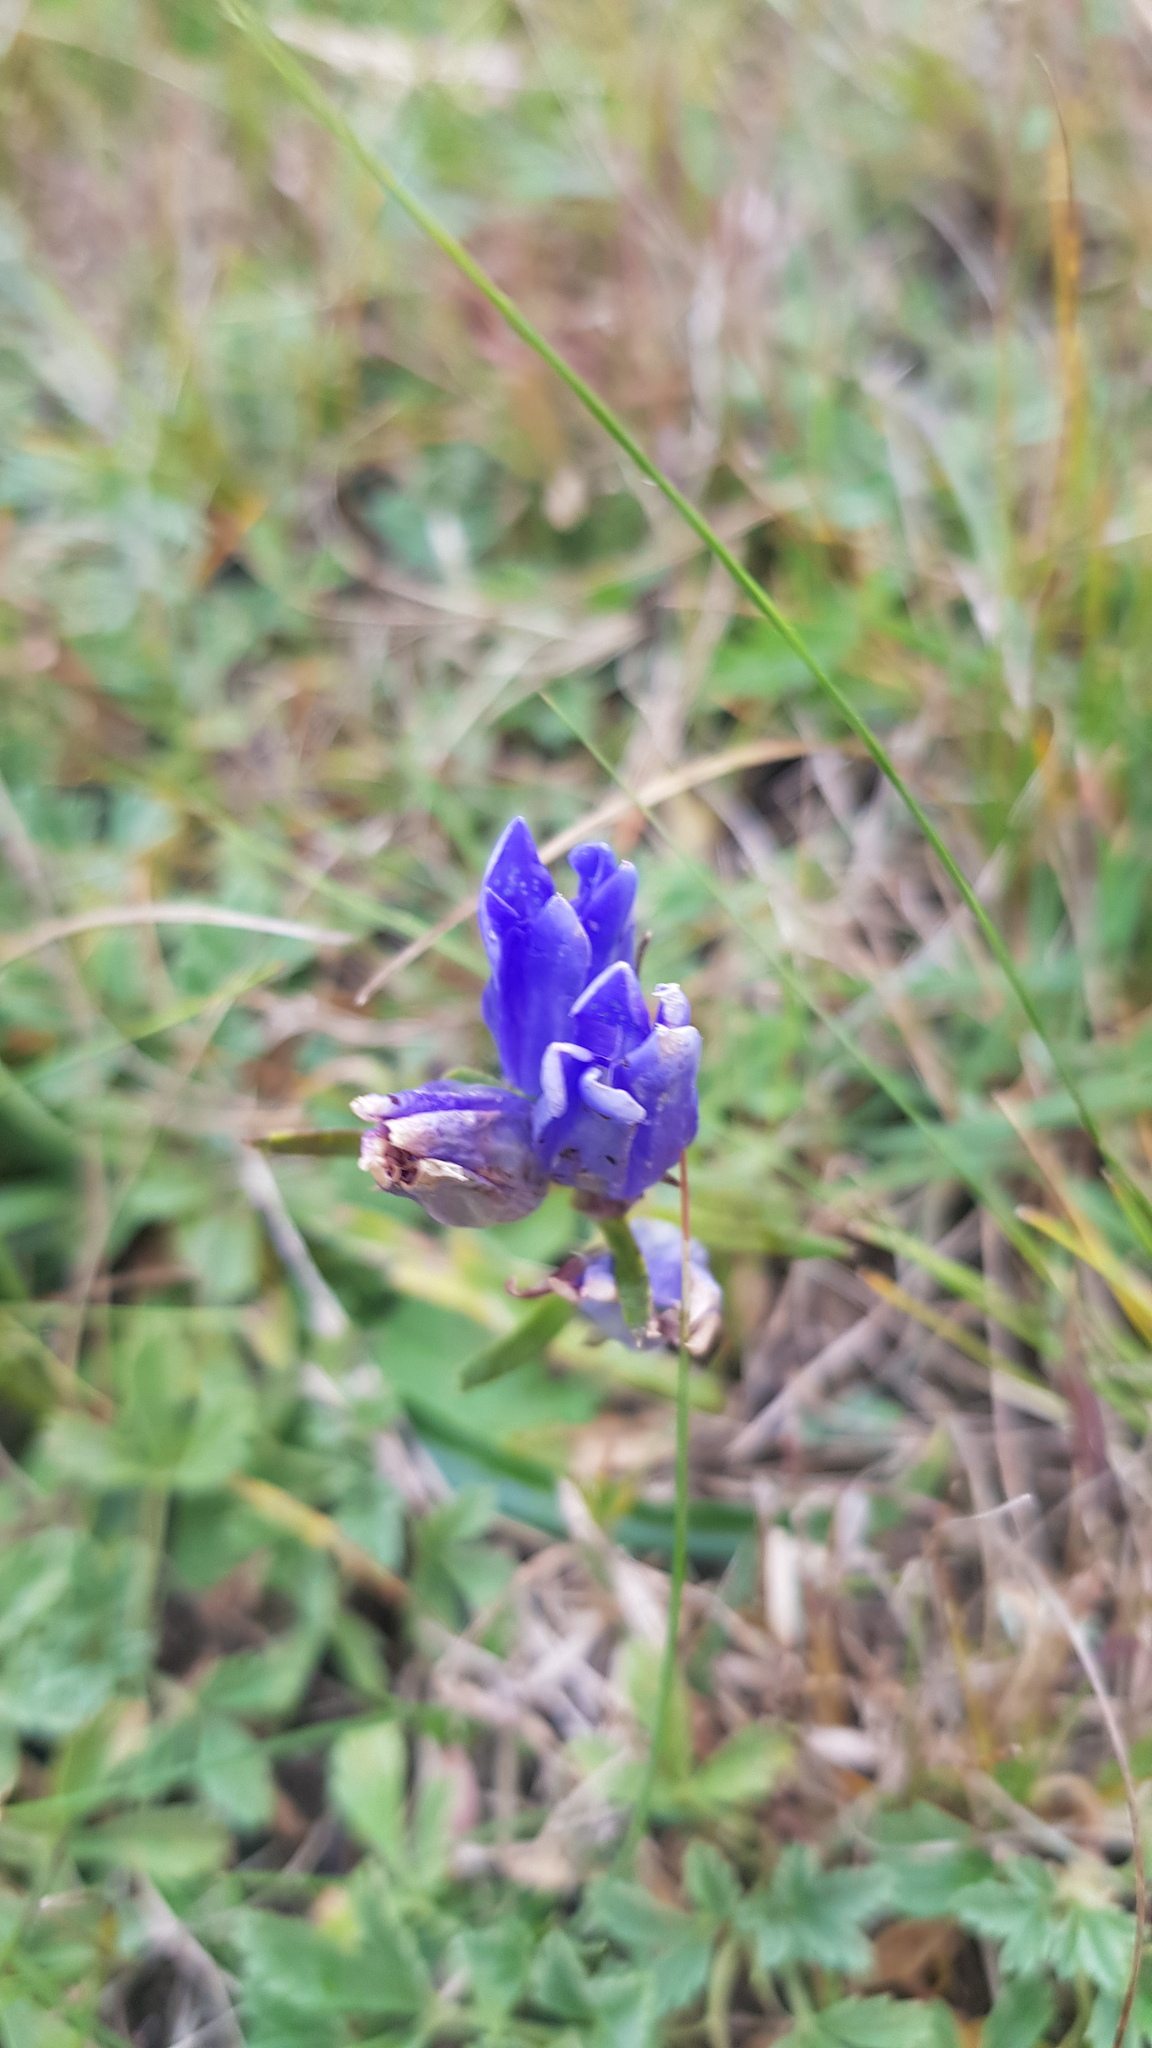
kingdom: Plantae
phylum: Tracheophyta
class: Magnoliopsida
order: Gentianales
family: Gentianaceae
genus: Gentiana
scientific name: Gentiana decumbens
